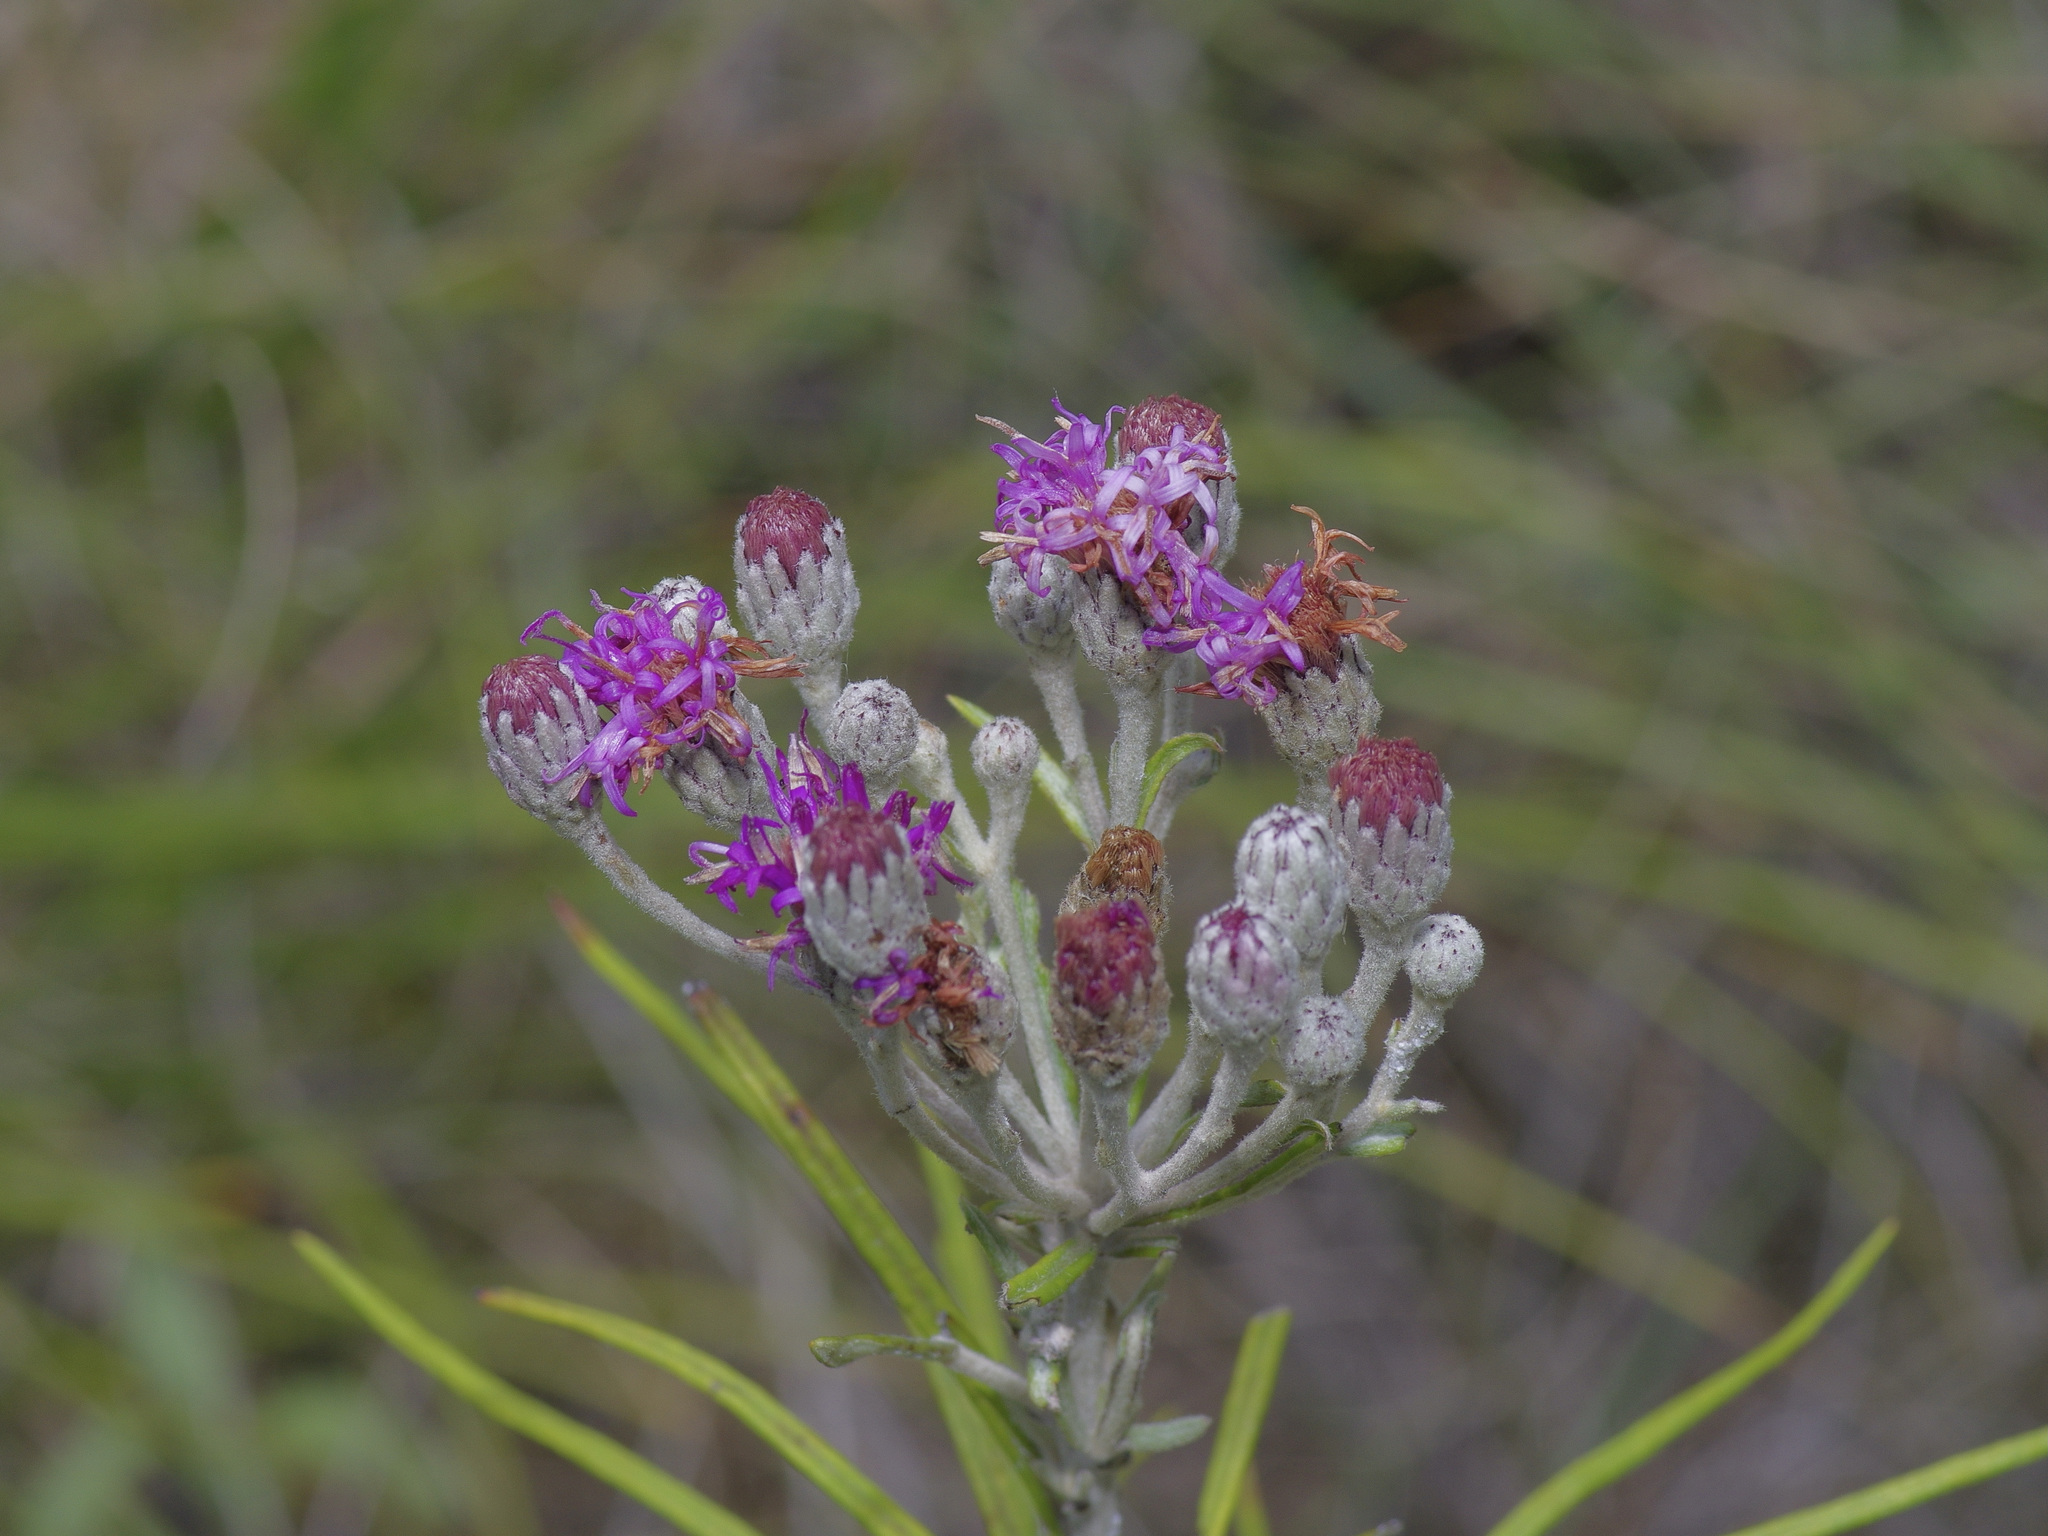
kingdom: Plantae
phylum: Tracheophyta
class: Magnoliopsida
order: Asterales
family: Asteraceae
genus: Vernonia
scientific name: Vernonia lindheimeri
